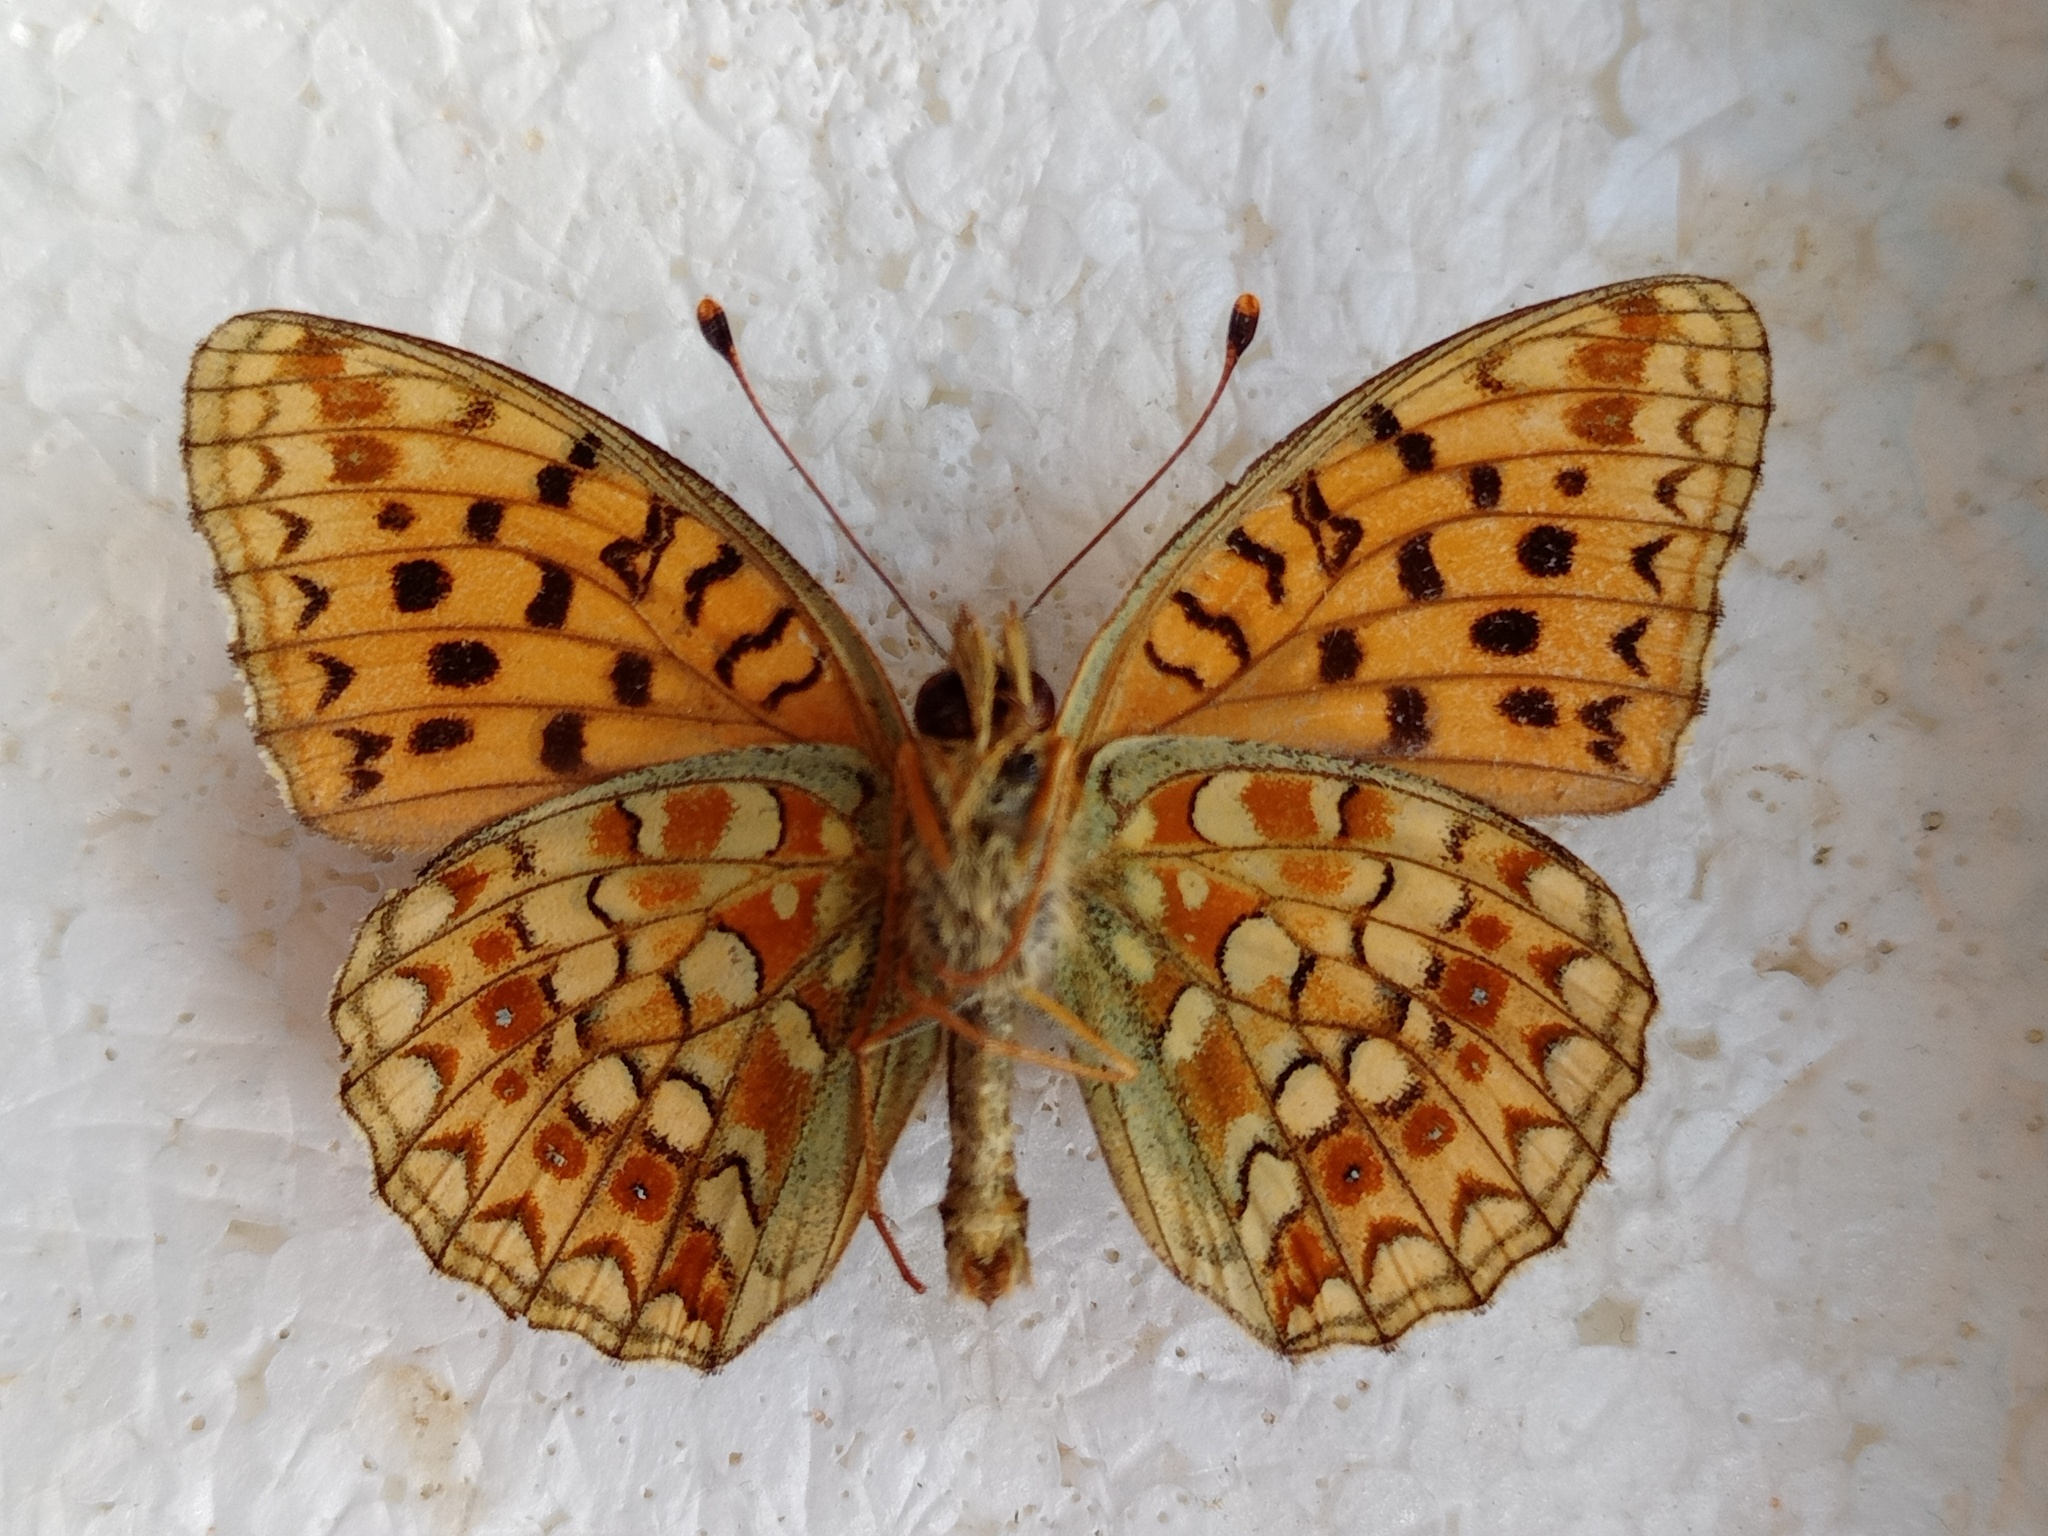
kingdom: Animalia
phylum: Arthropoda
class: Insecta
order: Lepidoptera
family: Nymphalidae
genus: Fabriciana
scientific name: Fabriciana niobe
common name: Niobe fritillary
